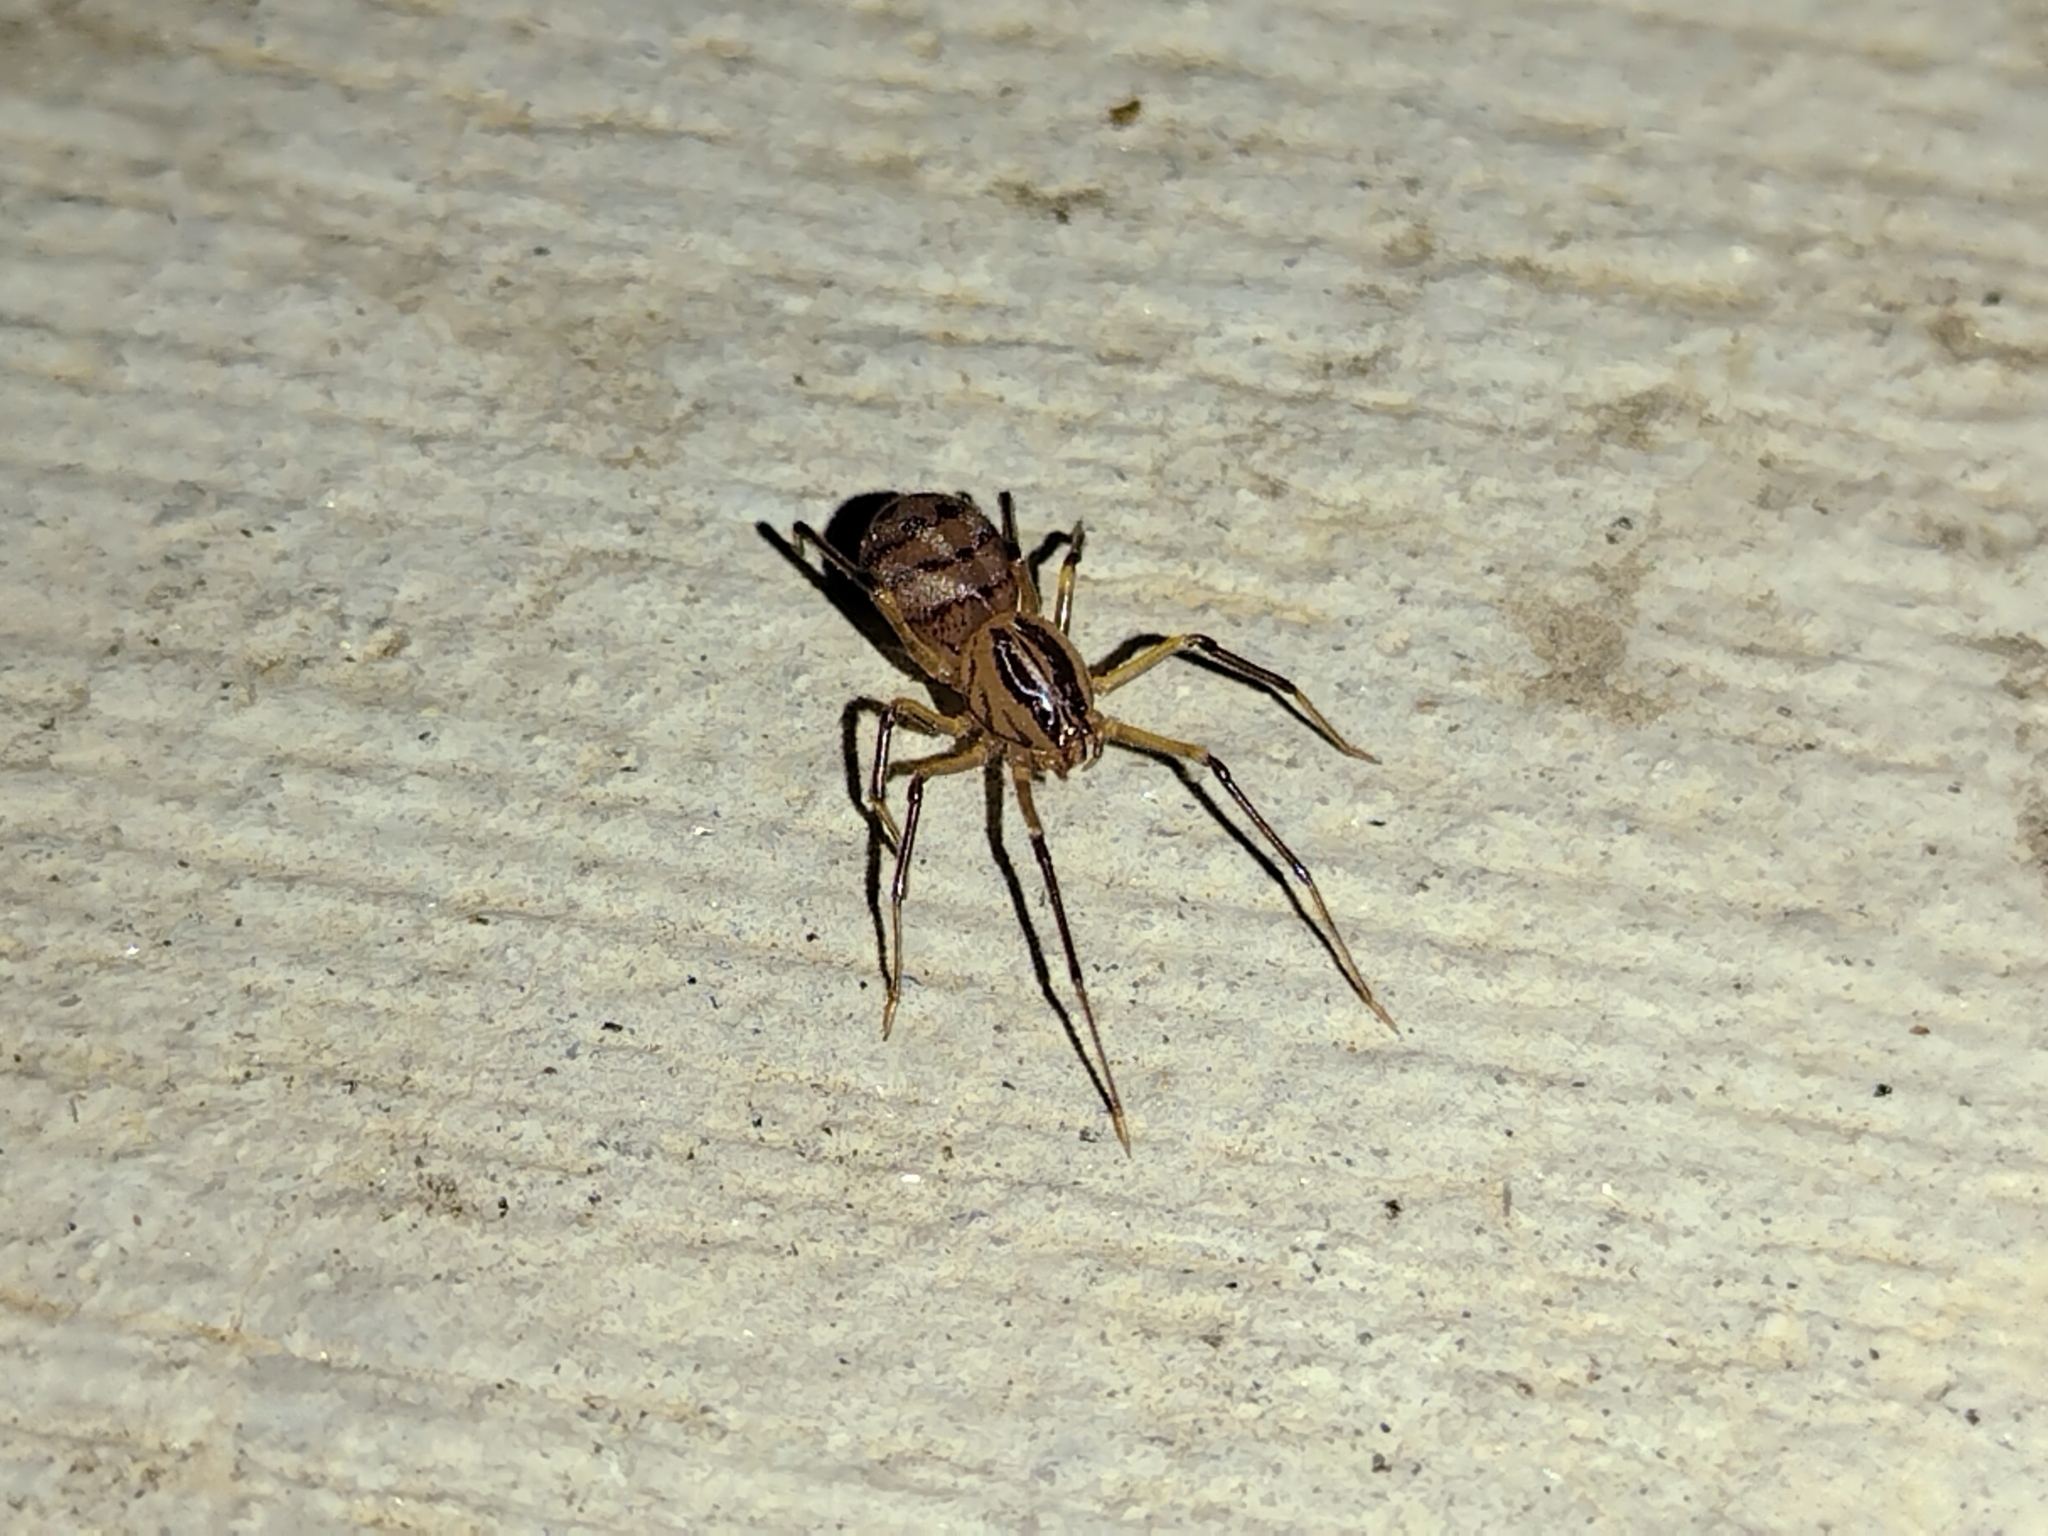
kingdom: Animalia
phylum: Arthropoda
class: Arachnida
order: Araneae
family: Scytodidae
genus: Dictis
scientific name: Dictis striatipes
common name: Spider
